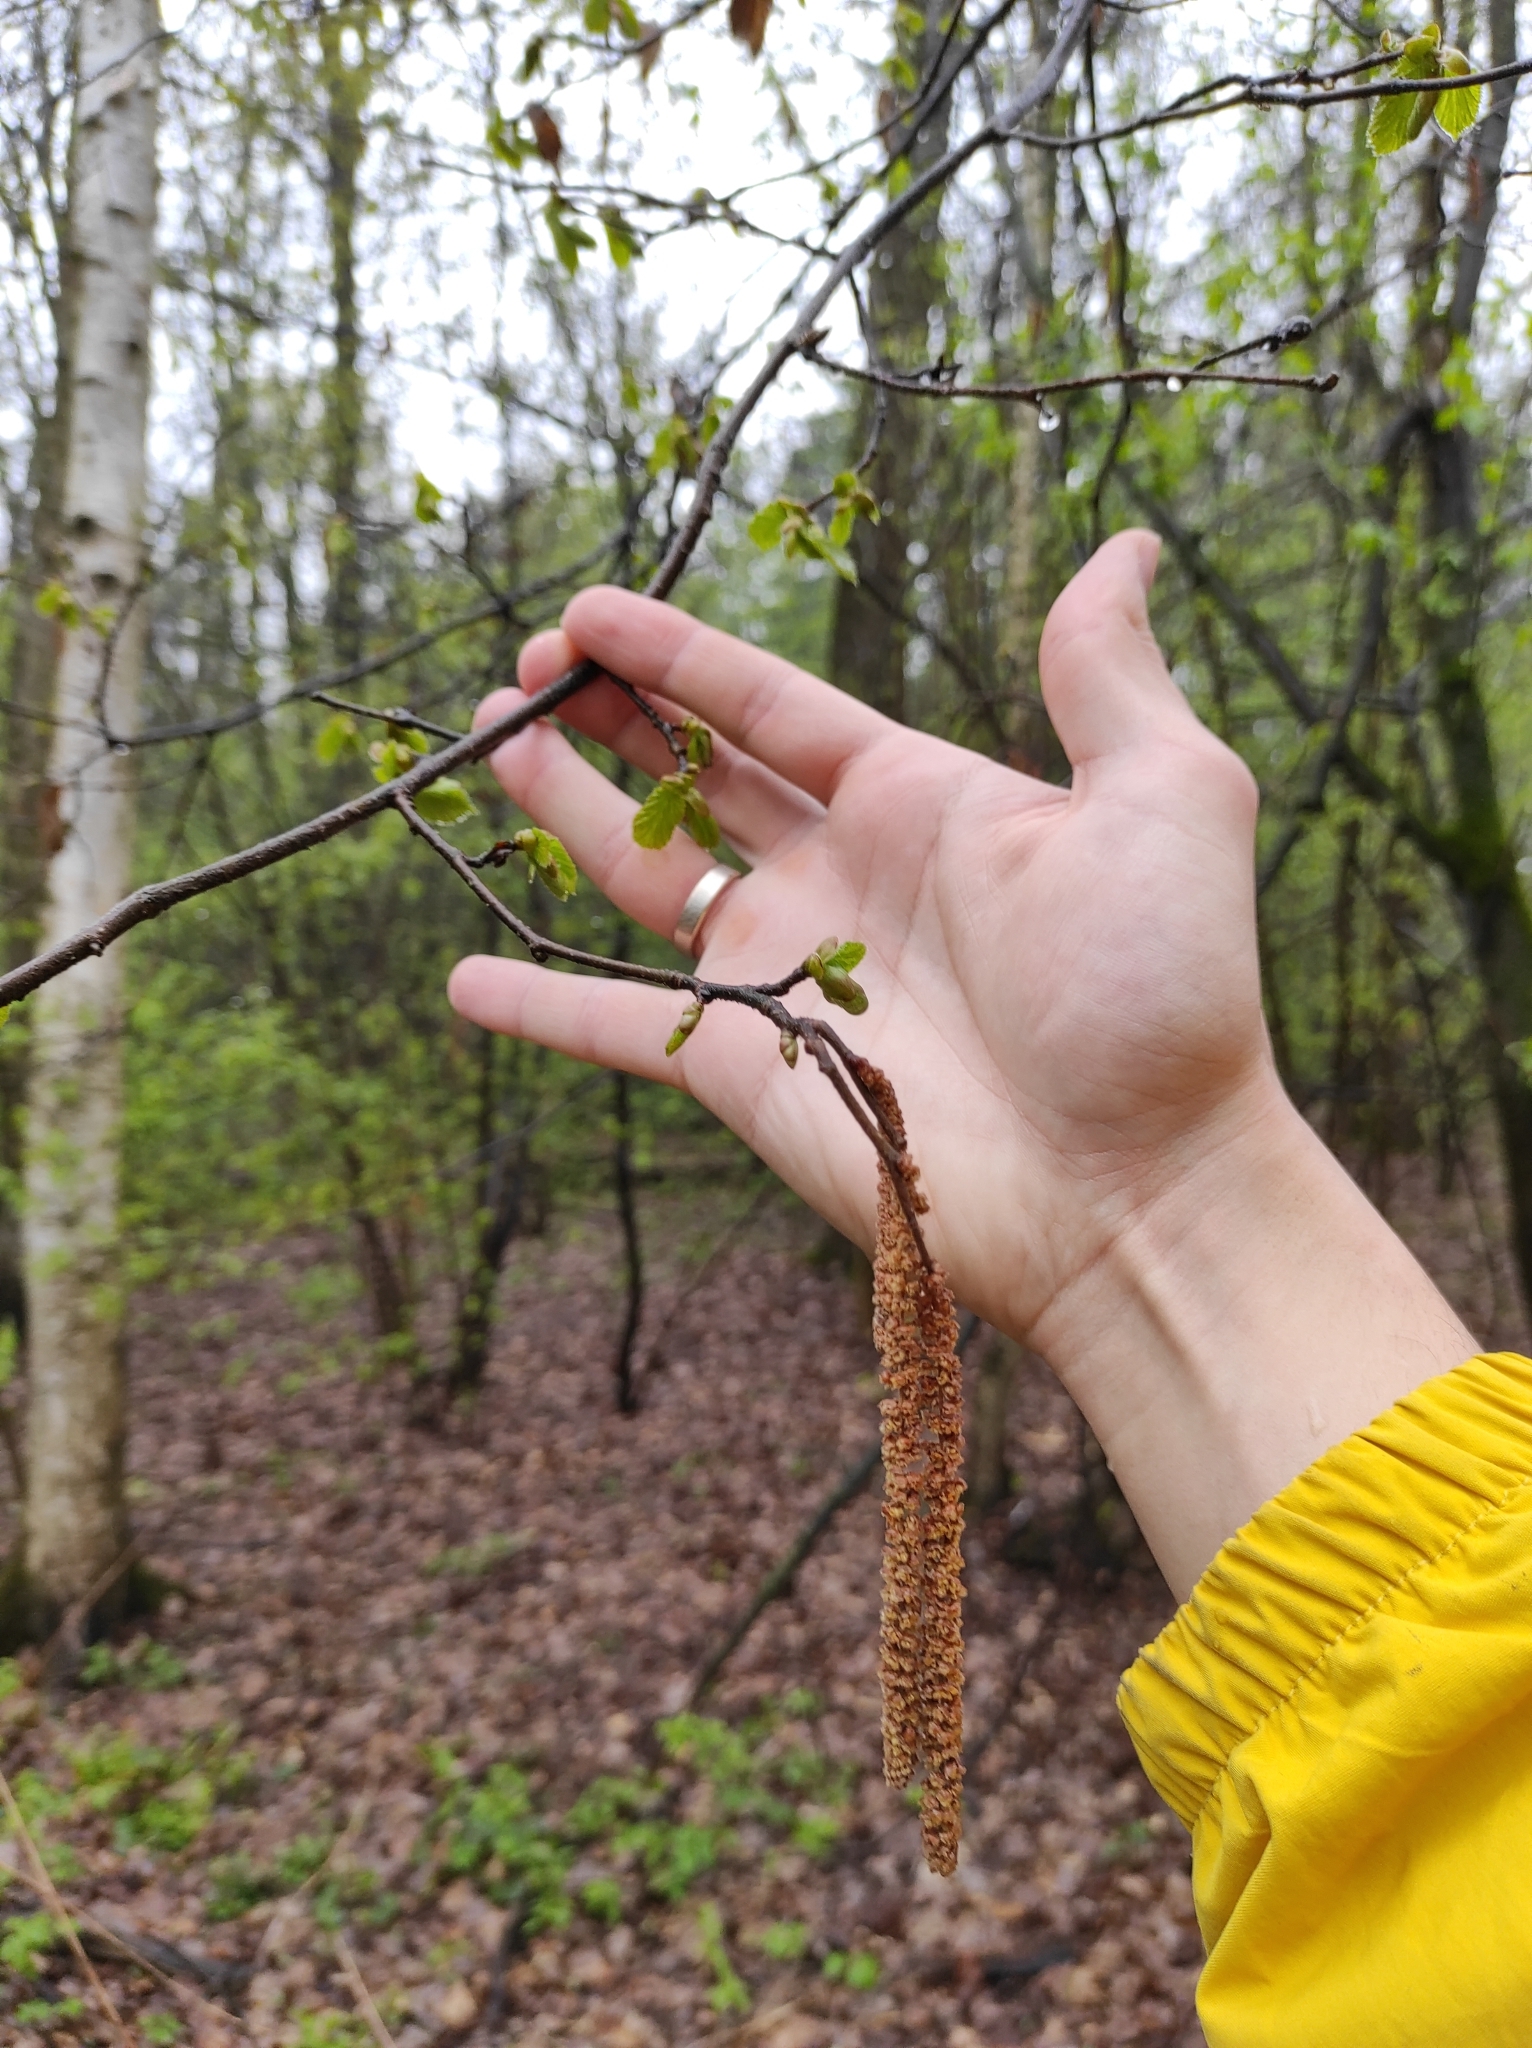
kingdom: Plantae
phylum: Tracheophyta
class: Magnoliopsida
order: Fagales
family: Betulaceae
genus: Corylus
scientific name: Corylus avellana
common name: European hazel
